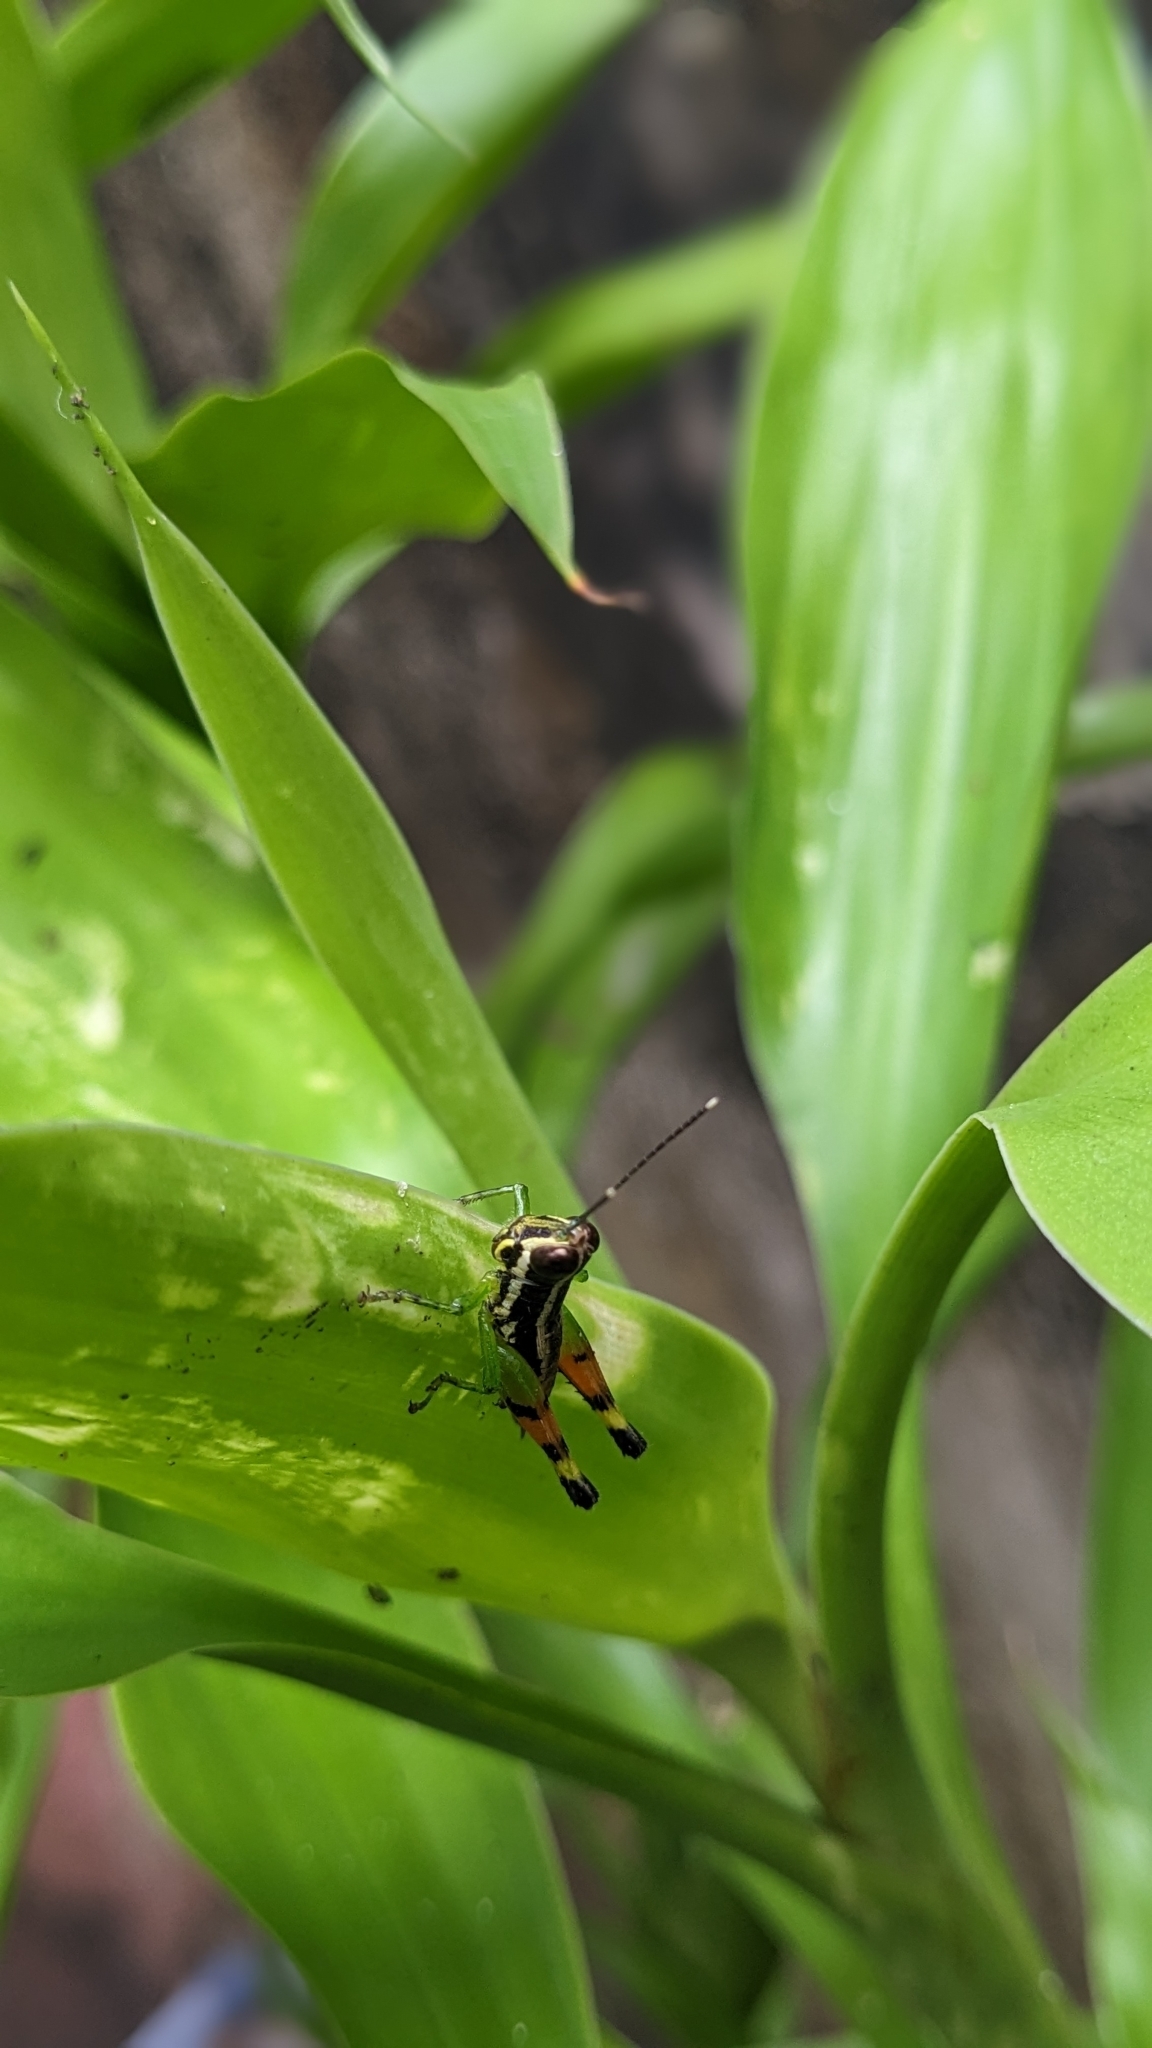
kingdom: Animalia
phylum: Arthropoda
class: Insecta
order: Orthoptera
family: Acrididae
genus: Chitaura
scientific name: Chitaura indica
